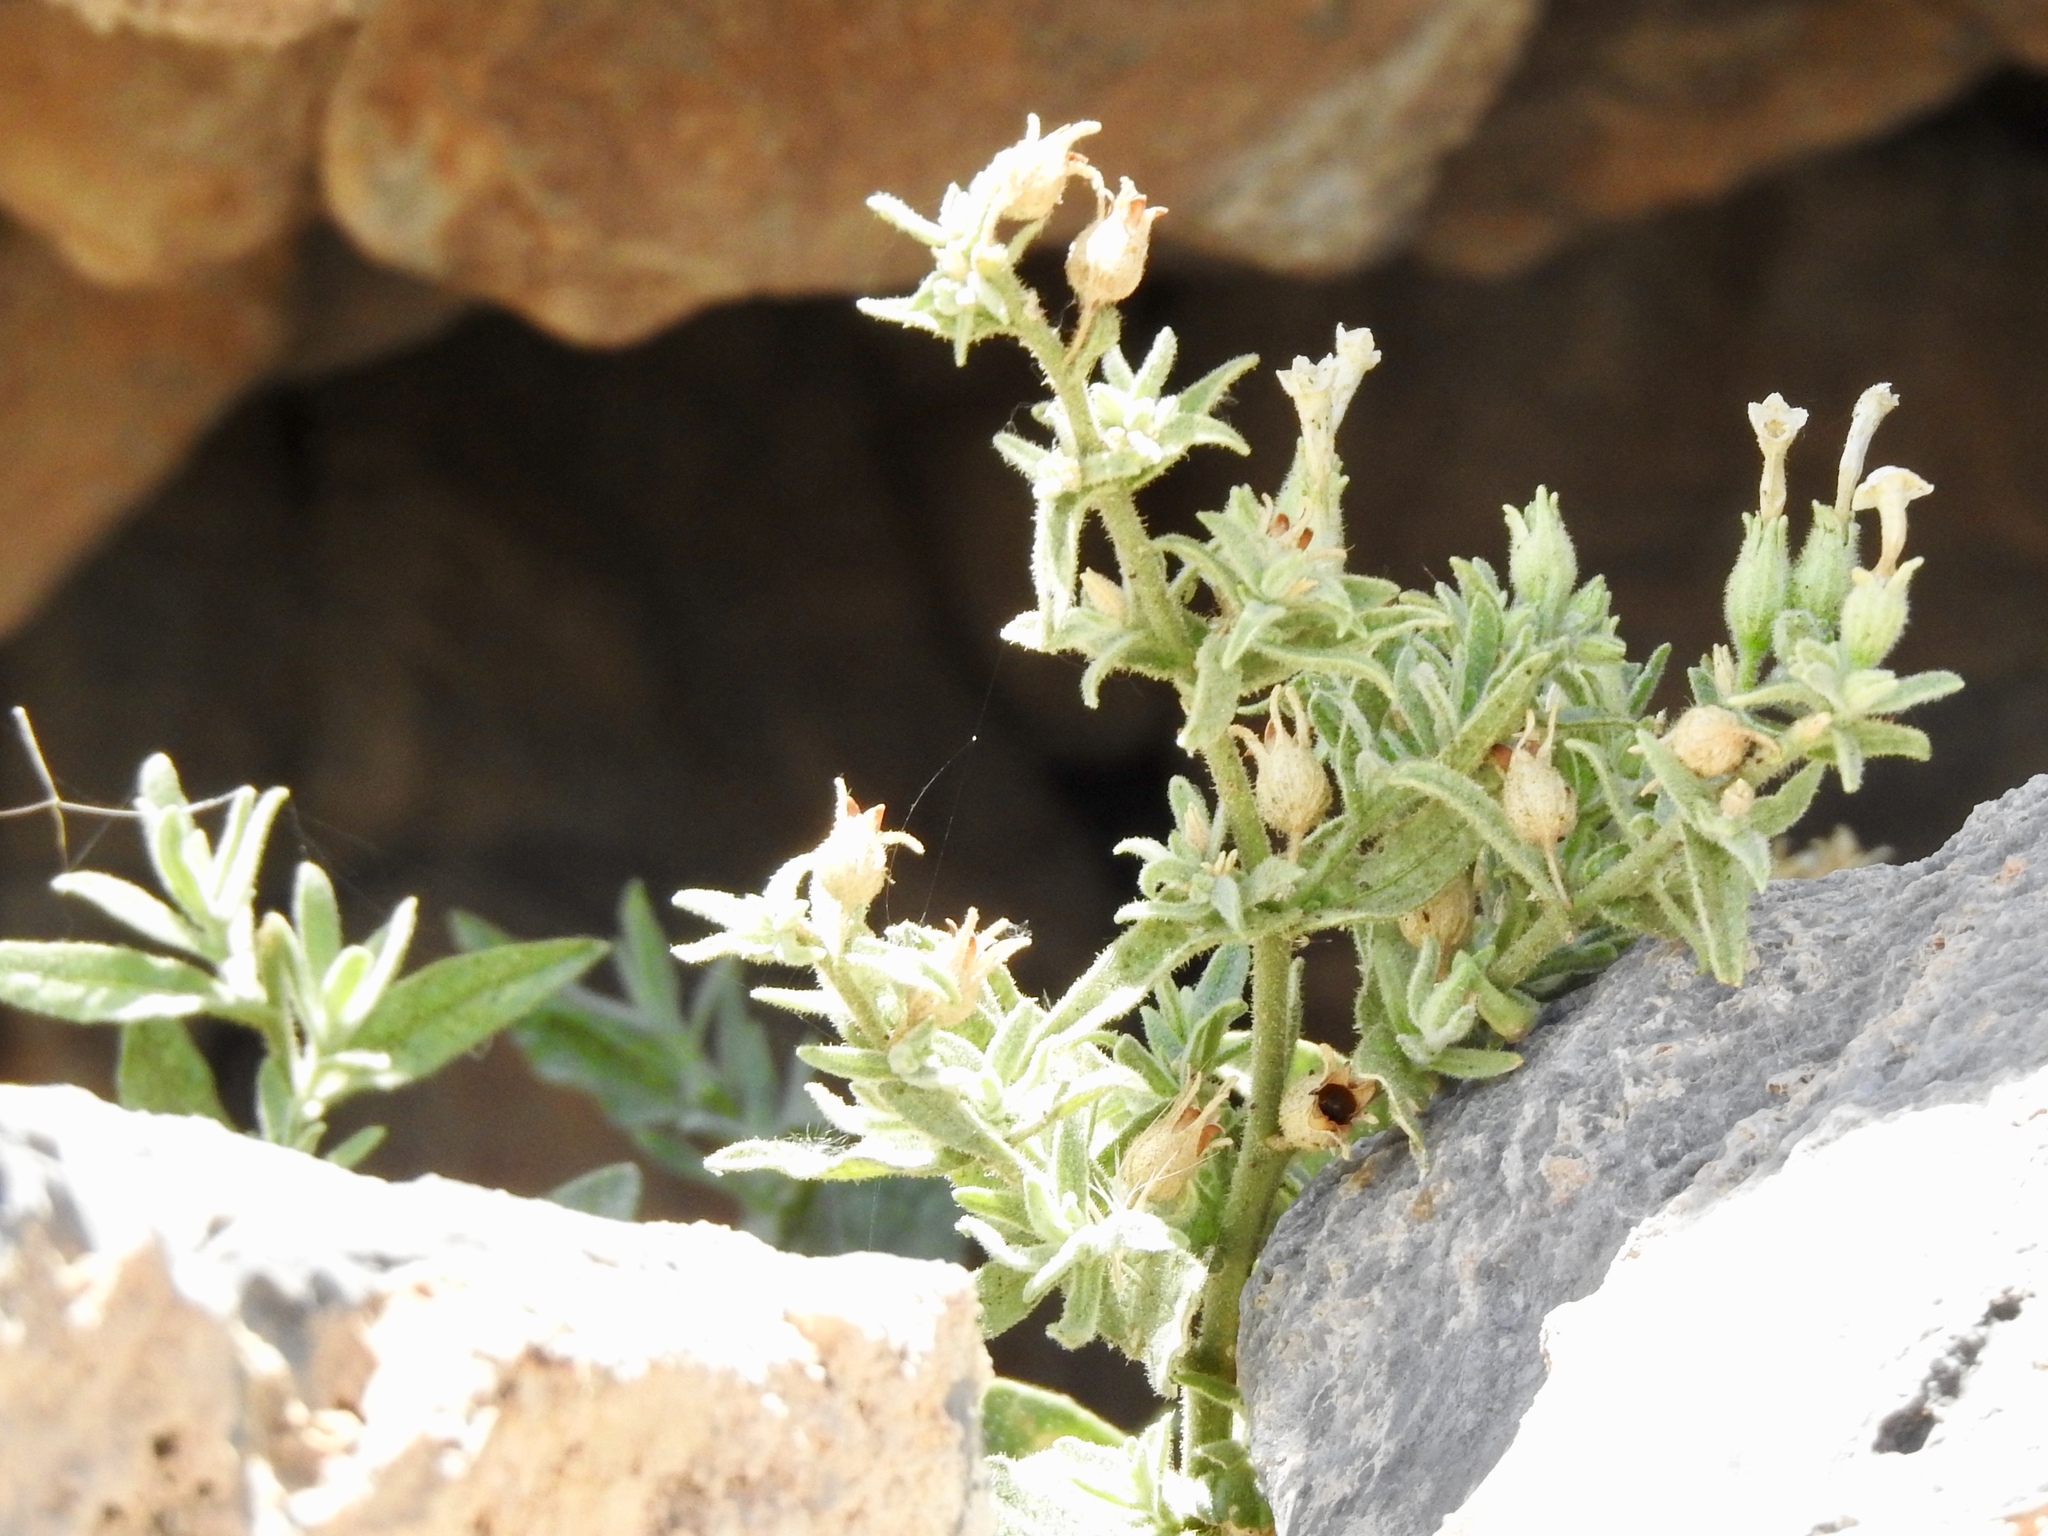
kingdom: Plantae
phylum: Tracheophyta
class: Magnoliopsida
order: Solanales
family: Solanaceae
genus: Nicotiana
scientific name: Nicotiana obtusifolia
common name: Desert tobacco
